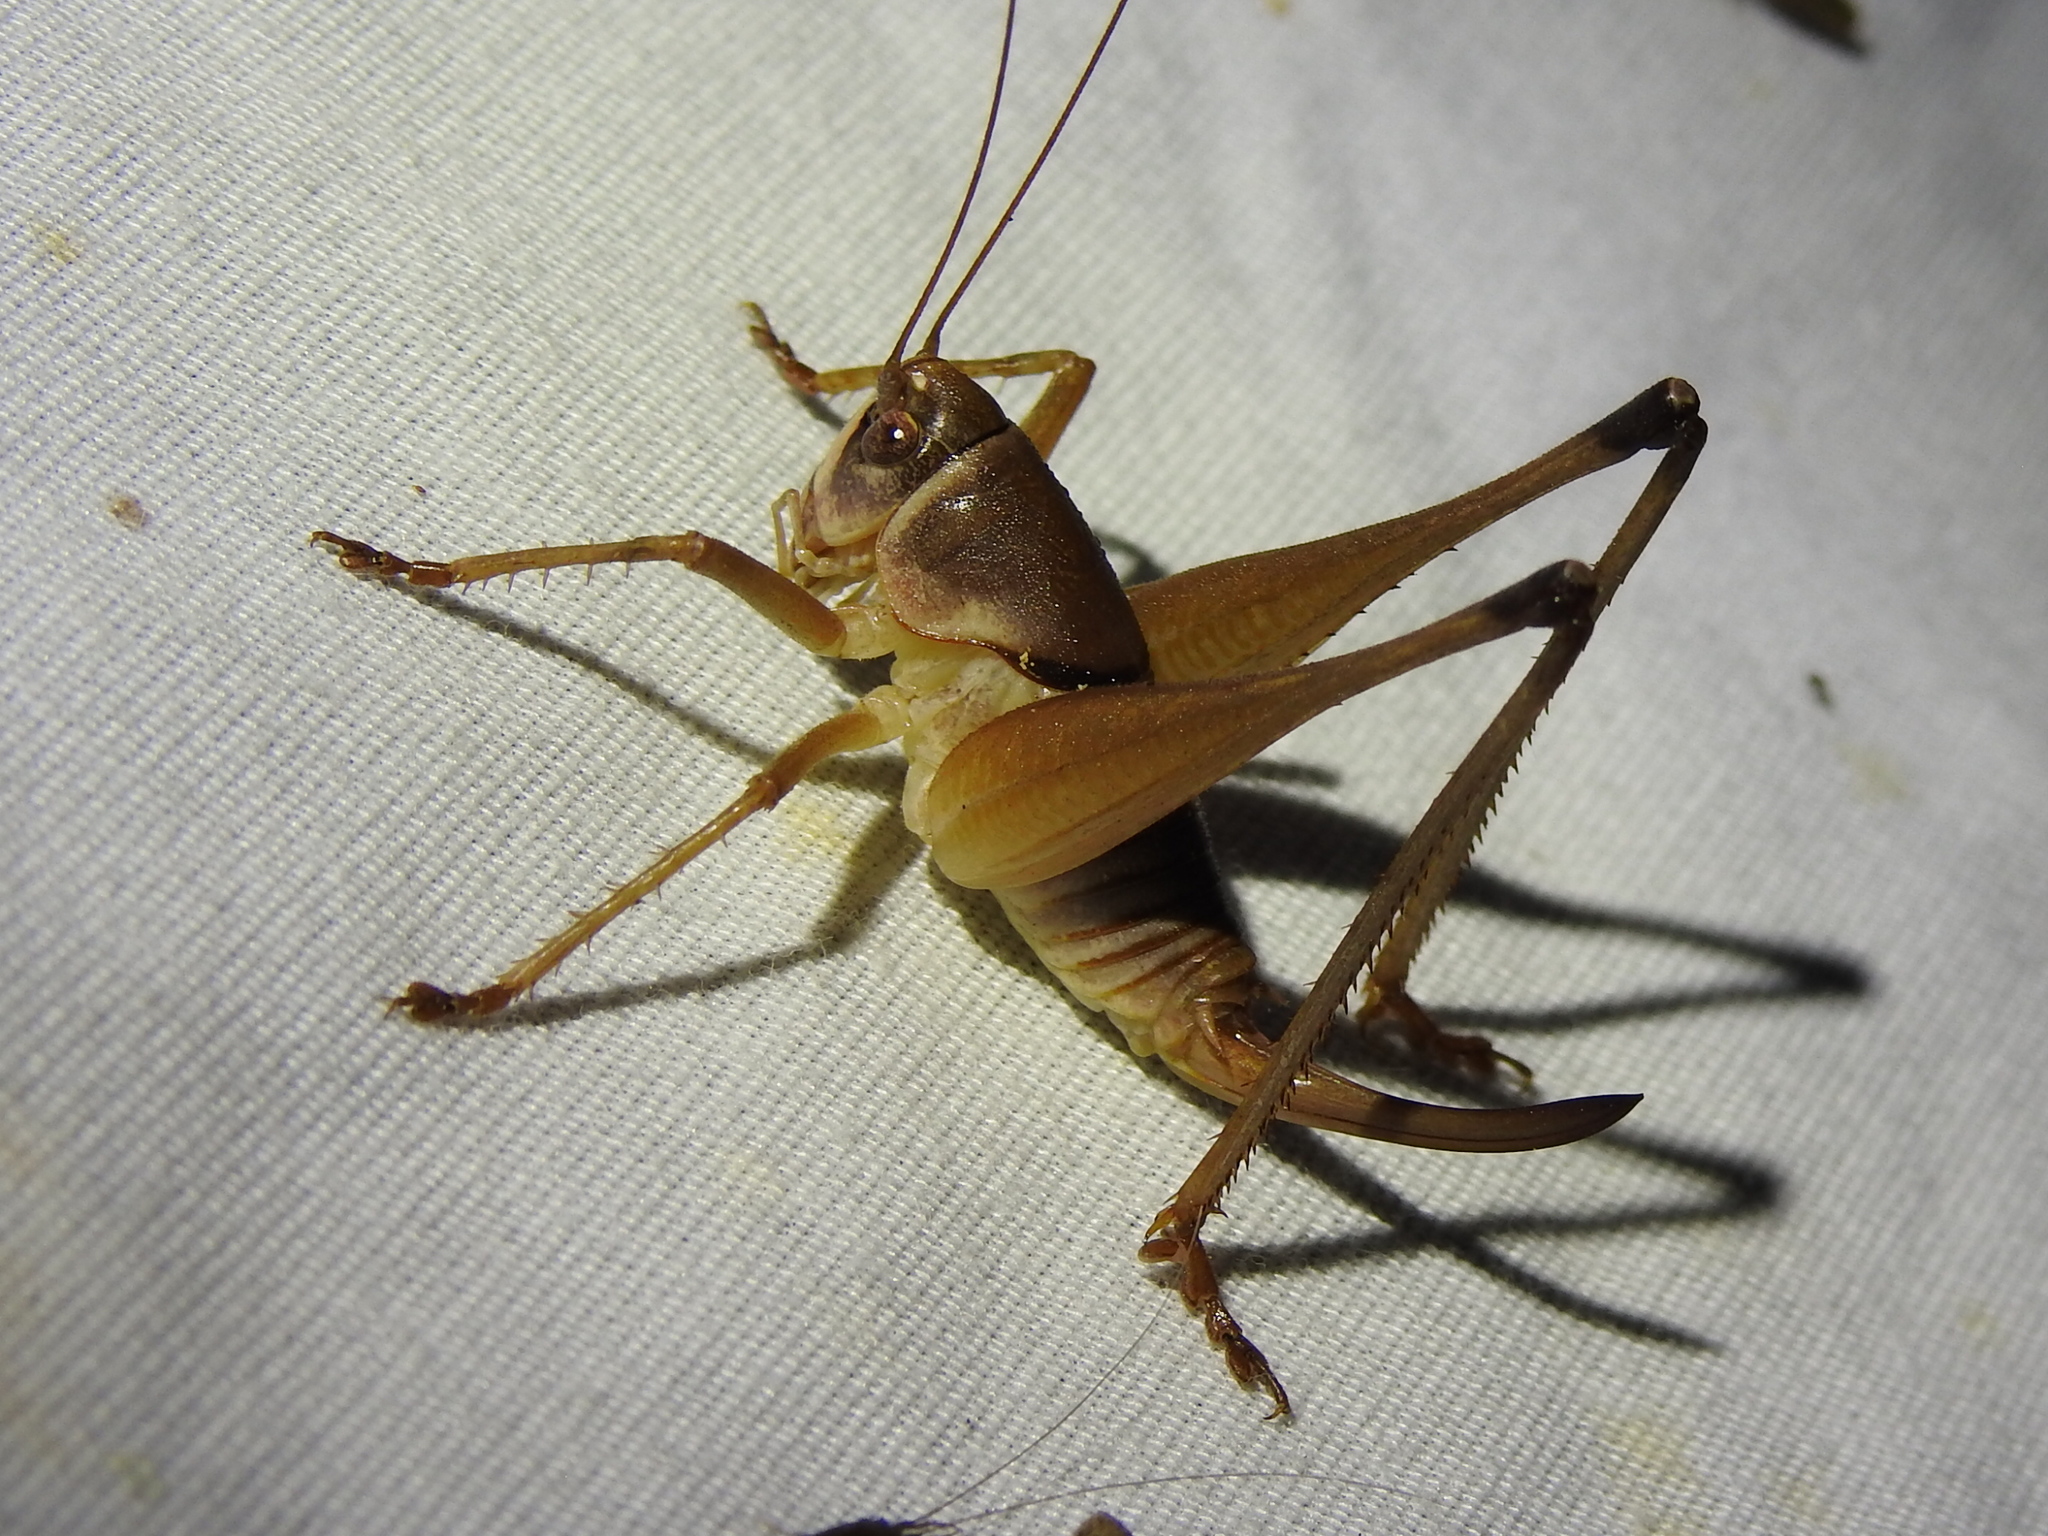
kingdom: Animalia
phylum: Arthropoda
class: Insecta
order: Orthoptera
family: Tettigoniidae
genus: Pediodectes
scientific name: Pediodectes bruneri
